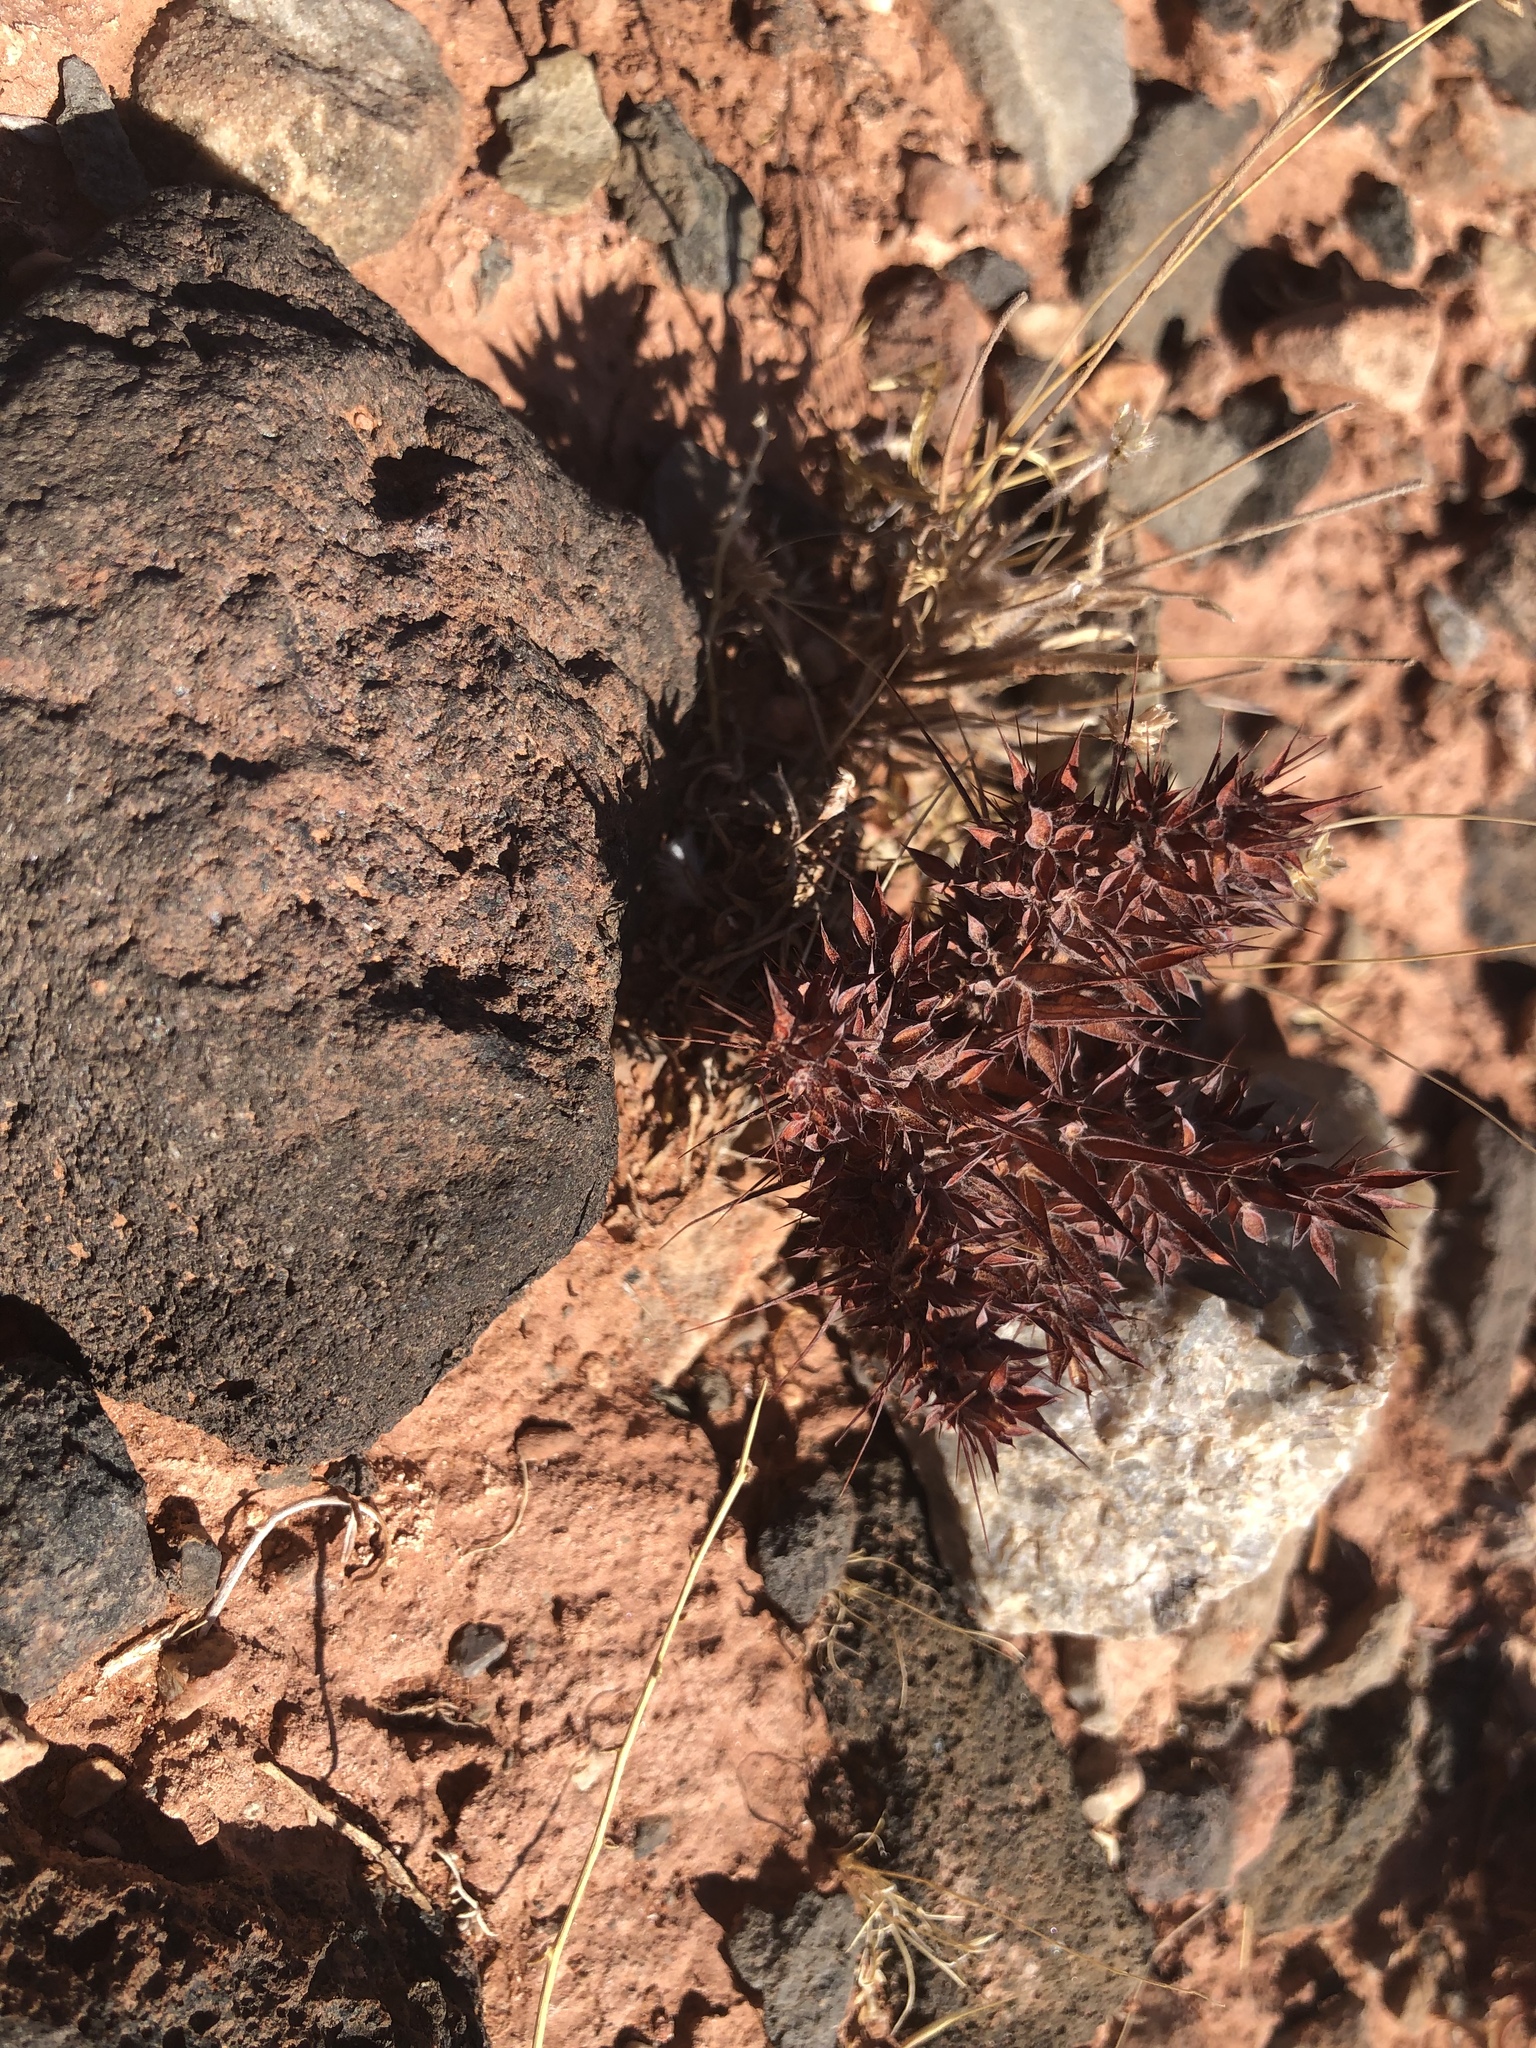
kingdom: Plantae
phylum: Tracheophyta
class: Magnoliopsida
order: Caryophyllales
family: Polygonaceae
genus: Chorizanthe
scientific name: Chorizanthe rigida
